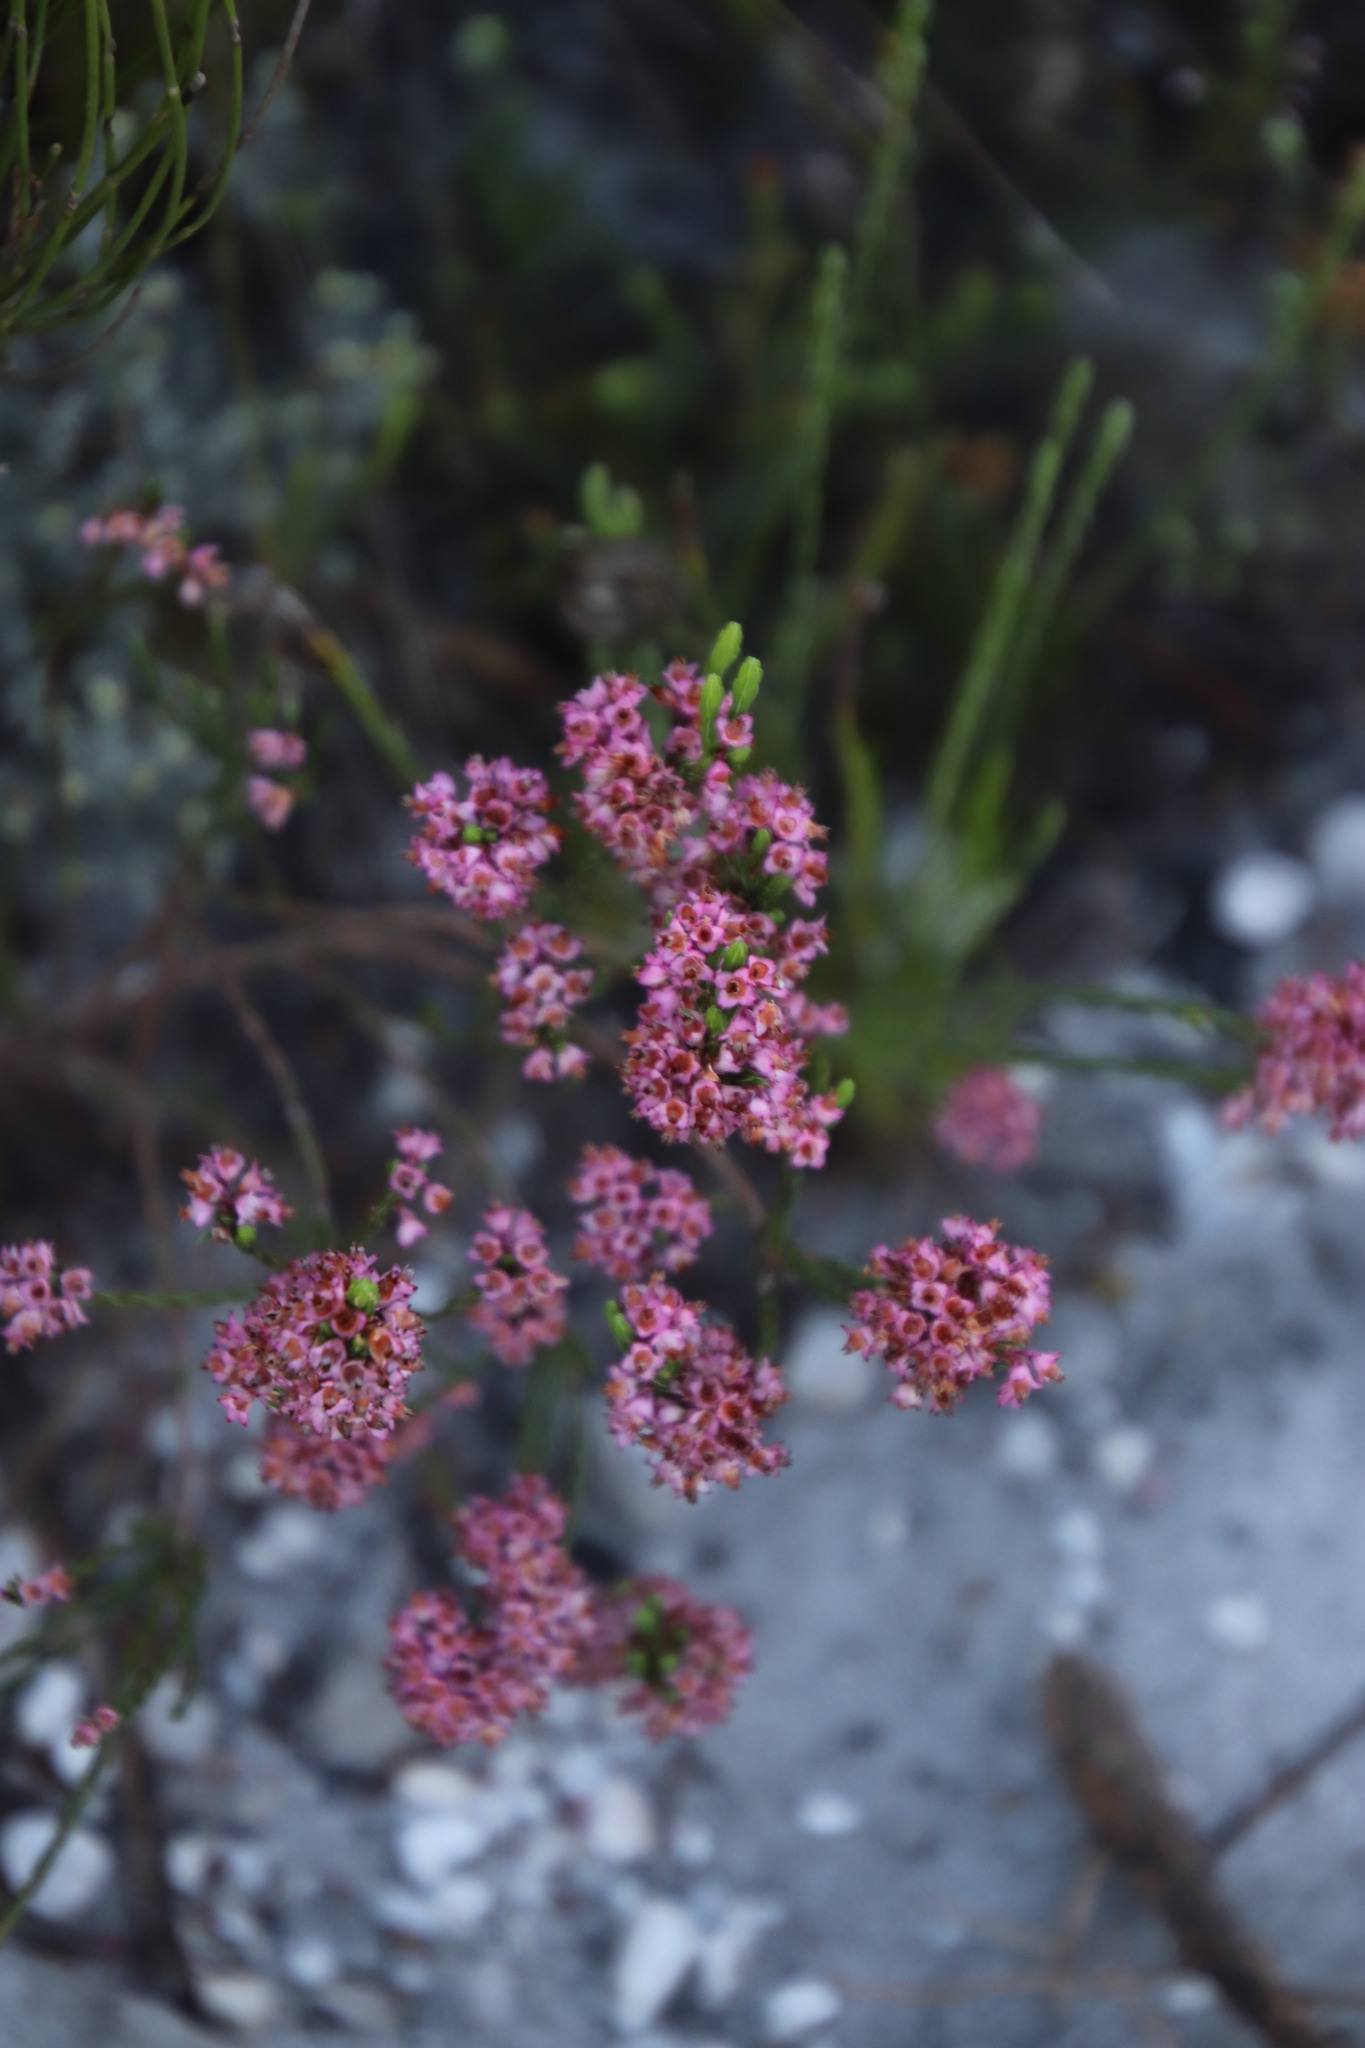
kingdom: Plantae
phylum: Tracheophyta
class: Magnoliopsida
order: Ericales
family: Ericaceae
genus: Erica
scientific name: Erica corifolia
